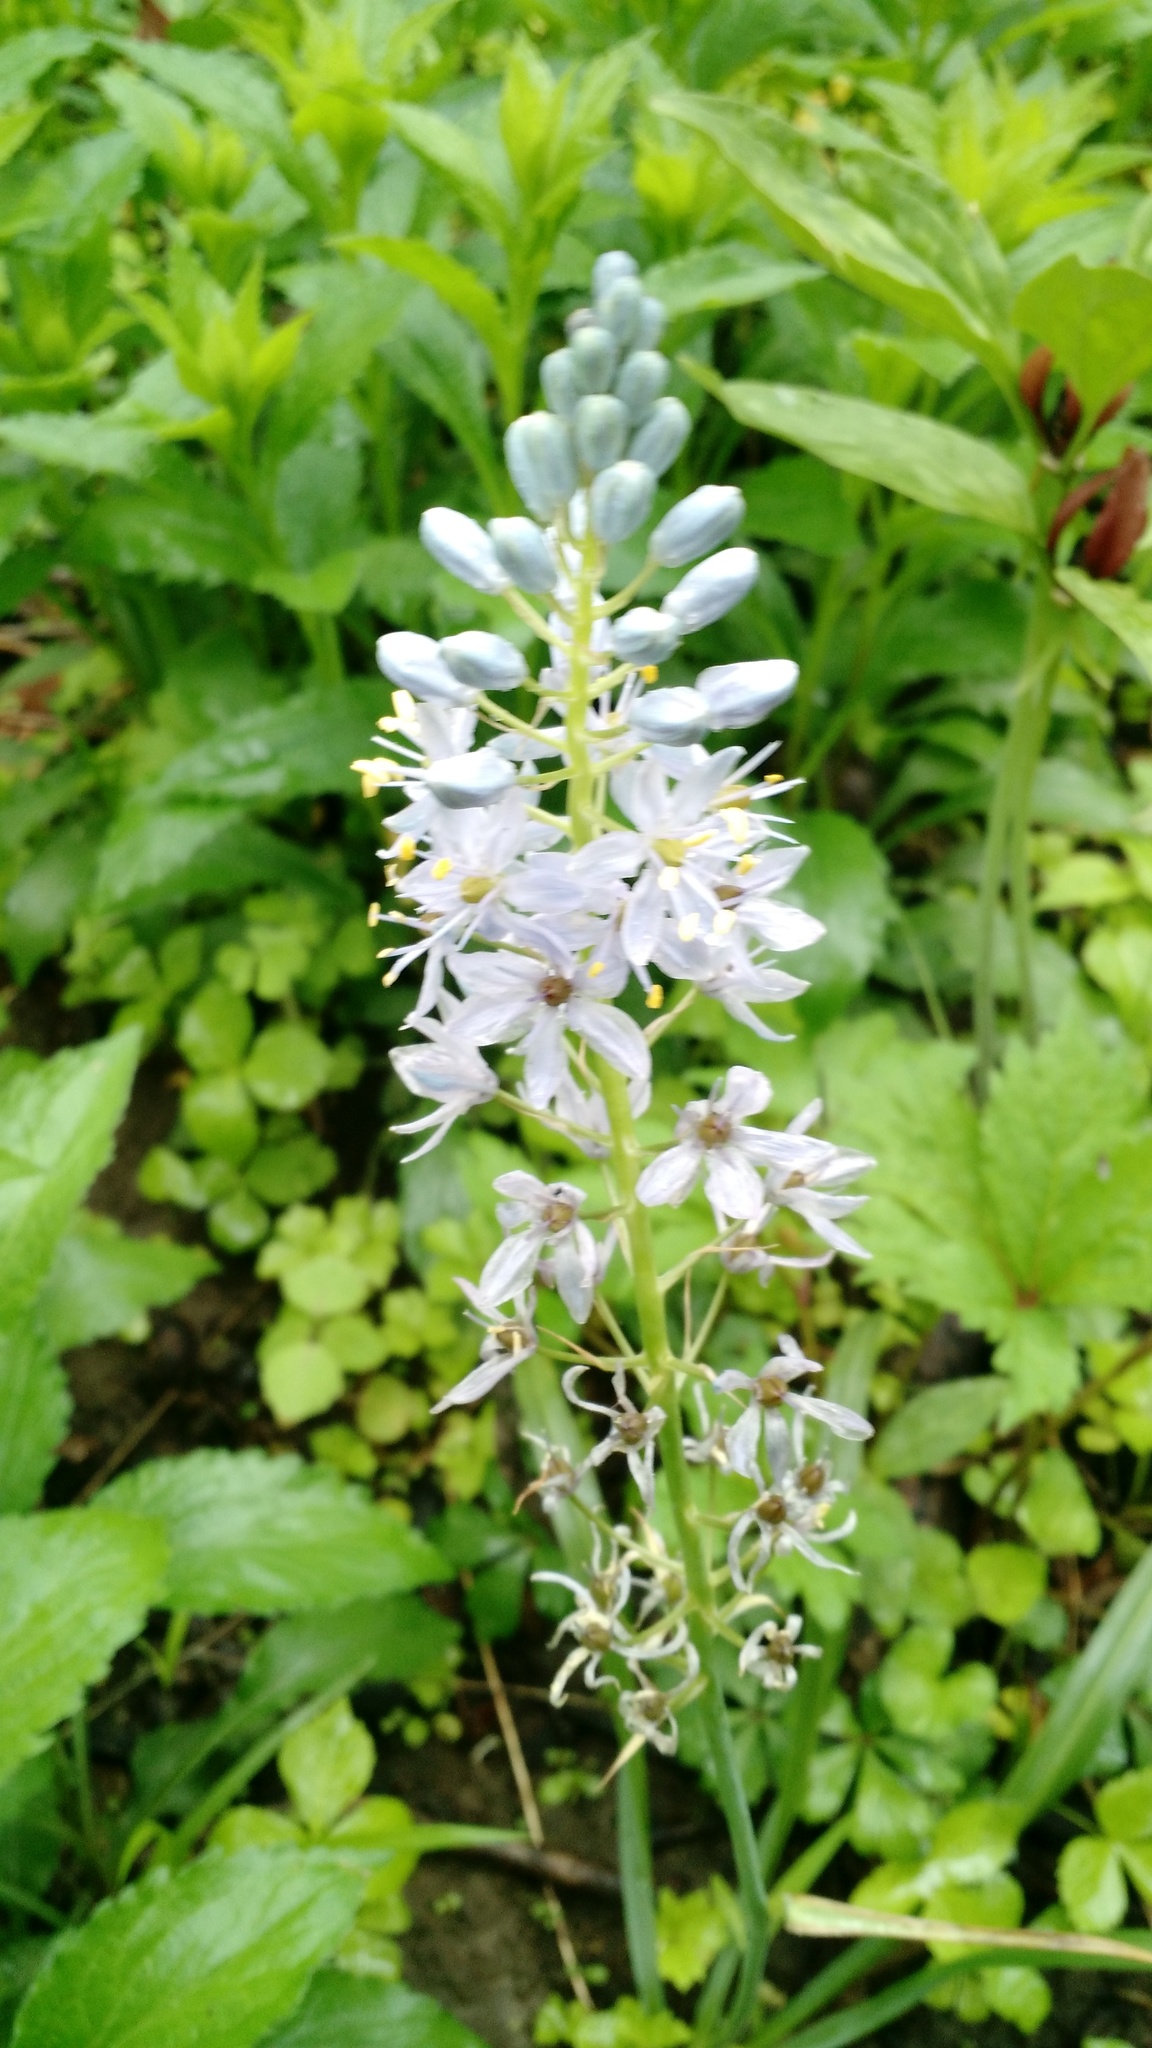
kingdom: Plantae
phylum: Tracheophyta
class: Liliopsida
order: Asparagales
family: Asparagaceae
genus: Camassia
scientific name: Camassia scilloides
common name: Wild hyacinth
